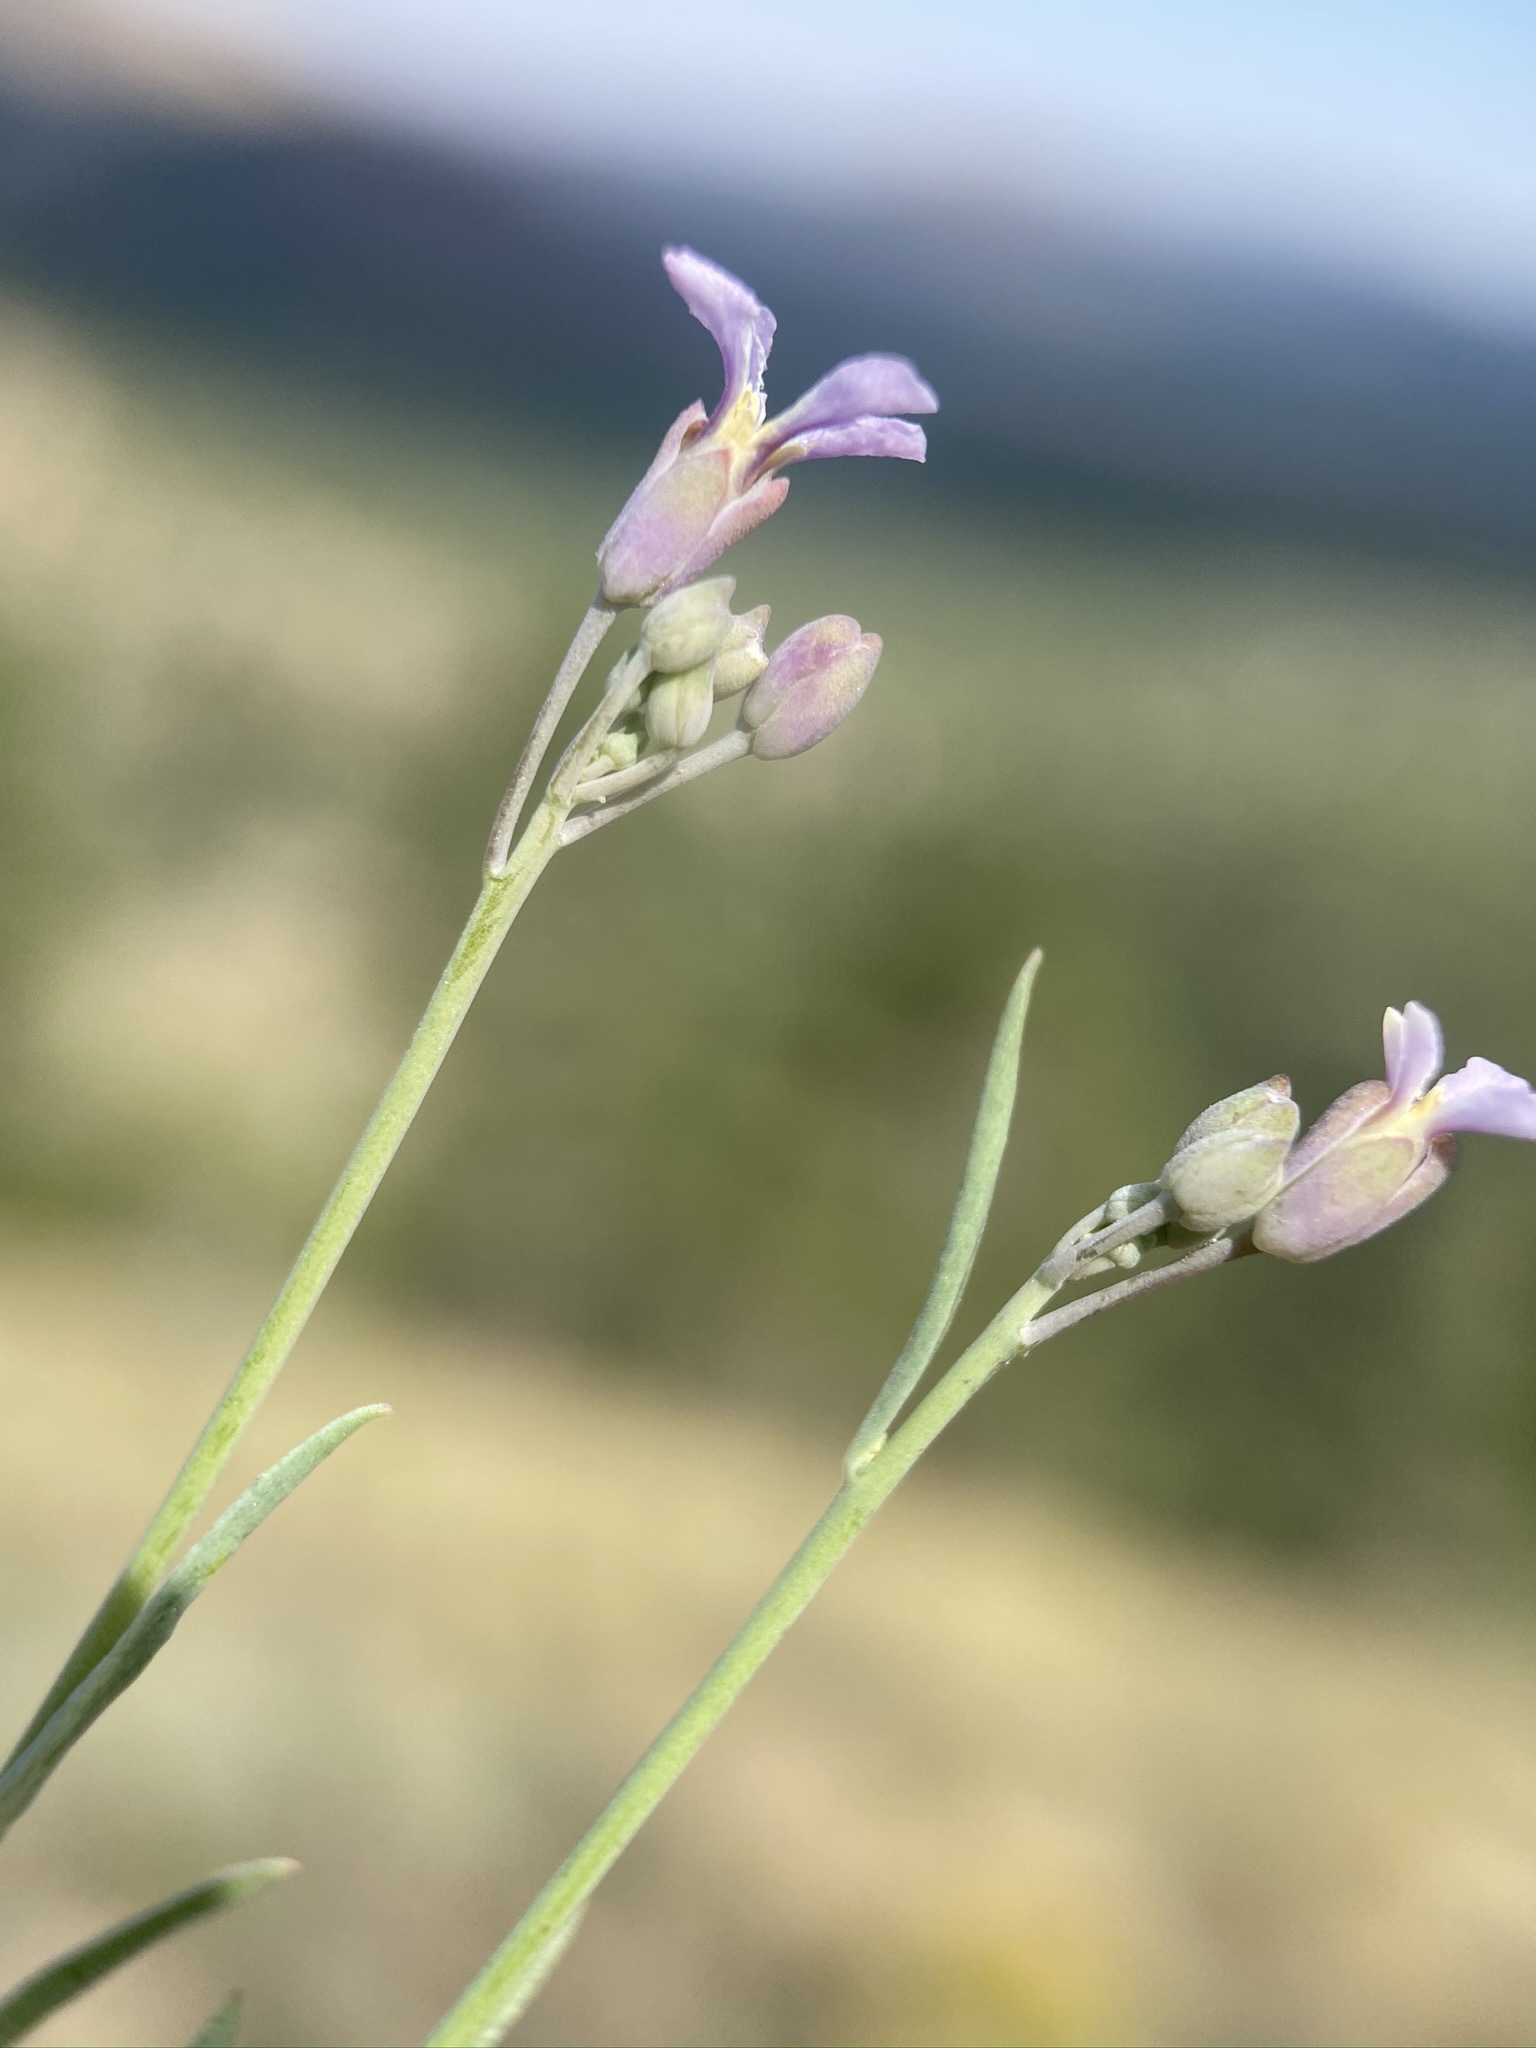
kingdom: Plantae
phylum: Tracheophyta
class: Magnoliopsida
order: Brassicales
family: Brassicaceae
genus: Hesperidanthus
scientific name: Hesperidanthus linearifolius
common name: Slim-leaf plains mustard
